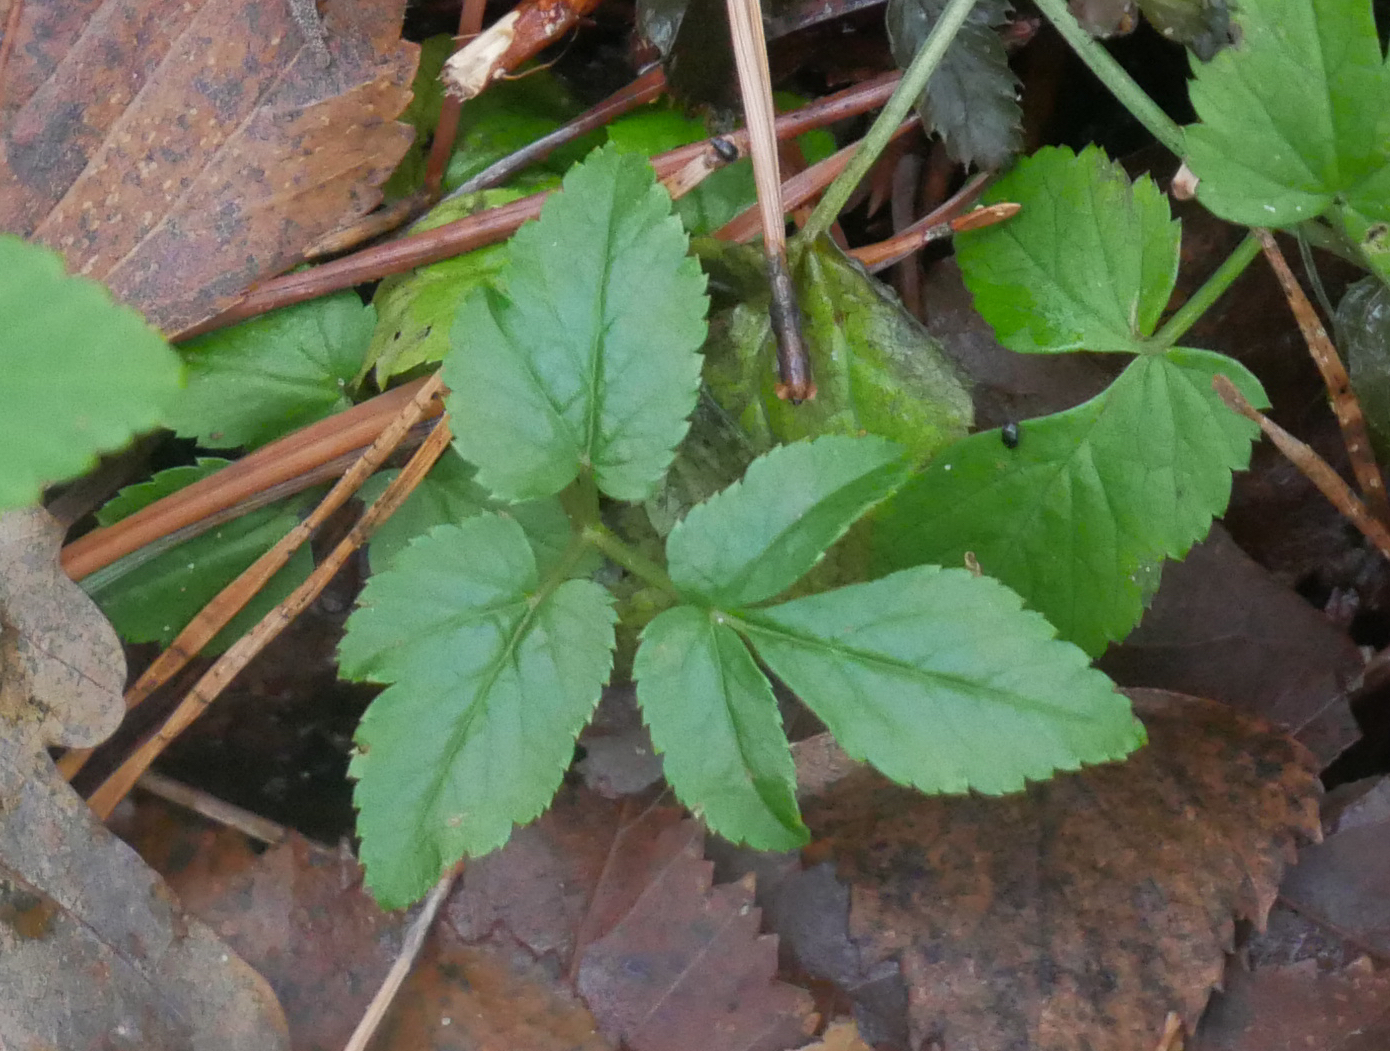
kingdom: Plantae
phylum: Tracheophyta
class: Magnoliopsida
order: Apiales
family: Apiaceae
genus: Aegopodium
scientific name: Aegopodium podagraria
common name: Ground-elder
